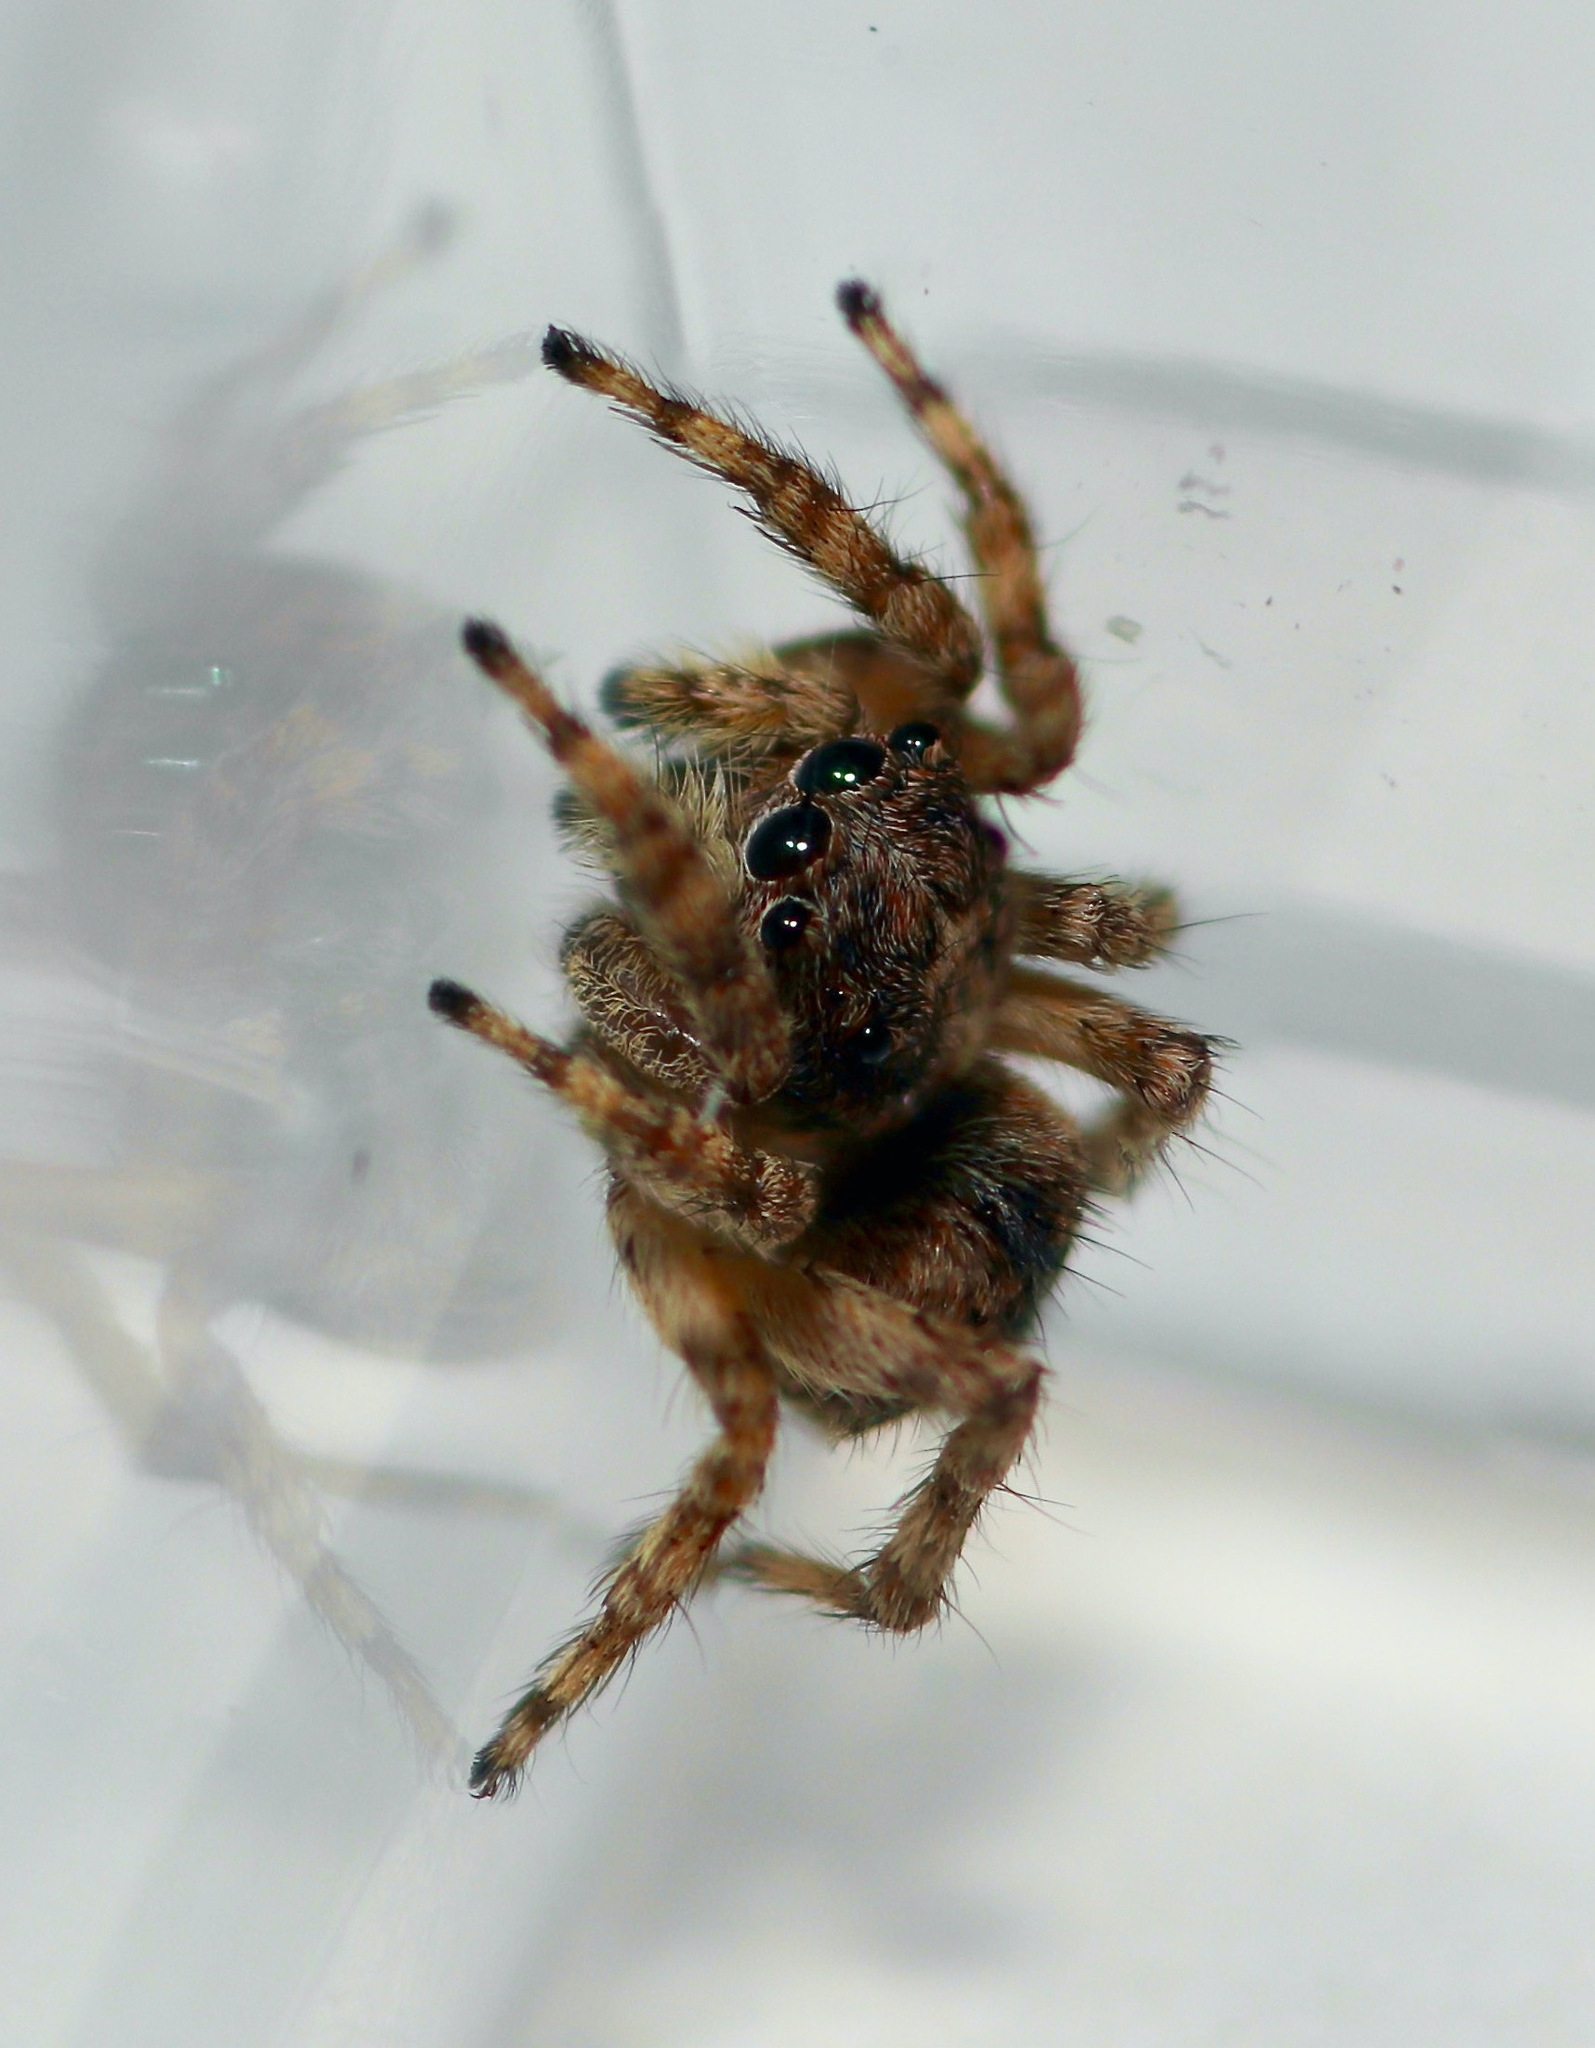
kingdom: Animalia
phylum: Arthropoda
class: Arachnida
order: Araneae
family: Salticidae
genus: Attulus
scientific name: Attulus fasciger
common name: Asiatic wall jumping spider
